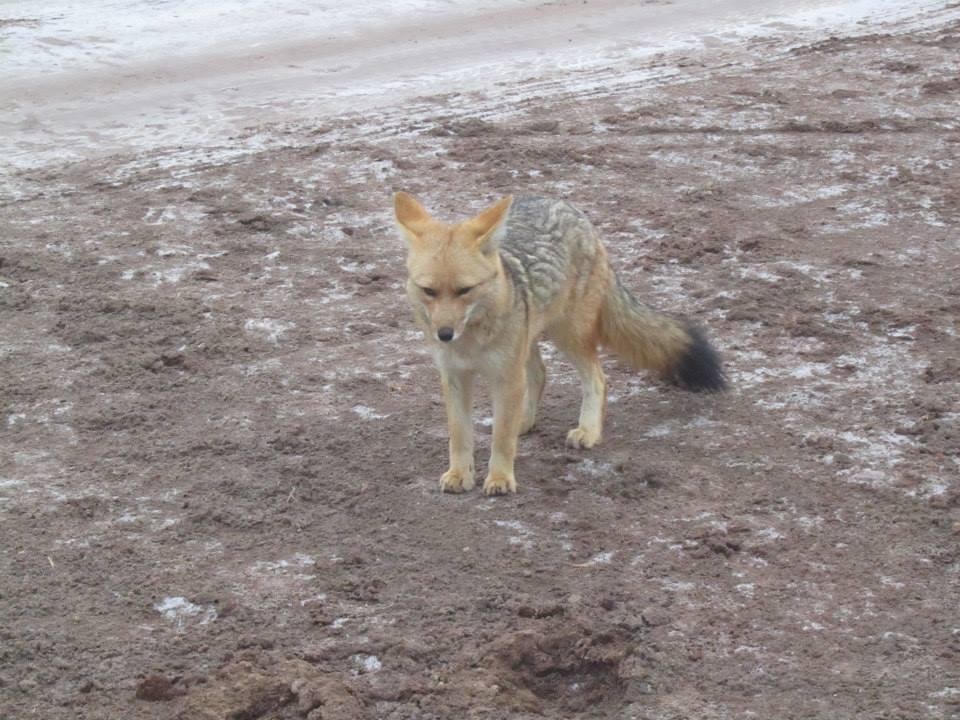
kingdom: Animalia
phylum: Chordata
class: Mammalia
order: Carnivora
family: Canidae
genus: Lycalopex
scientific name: Lycalopex culpaeus
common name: Culpeo
